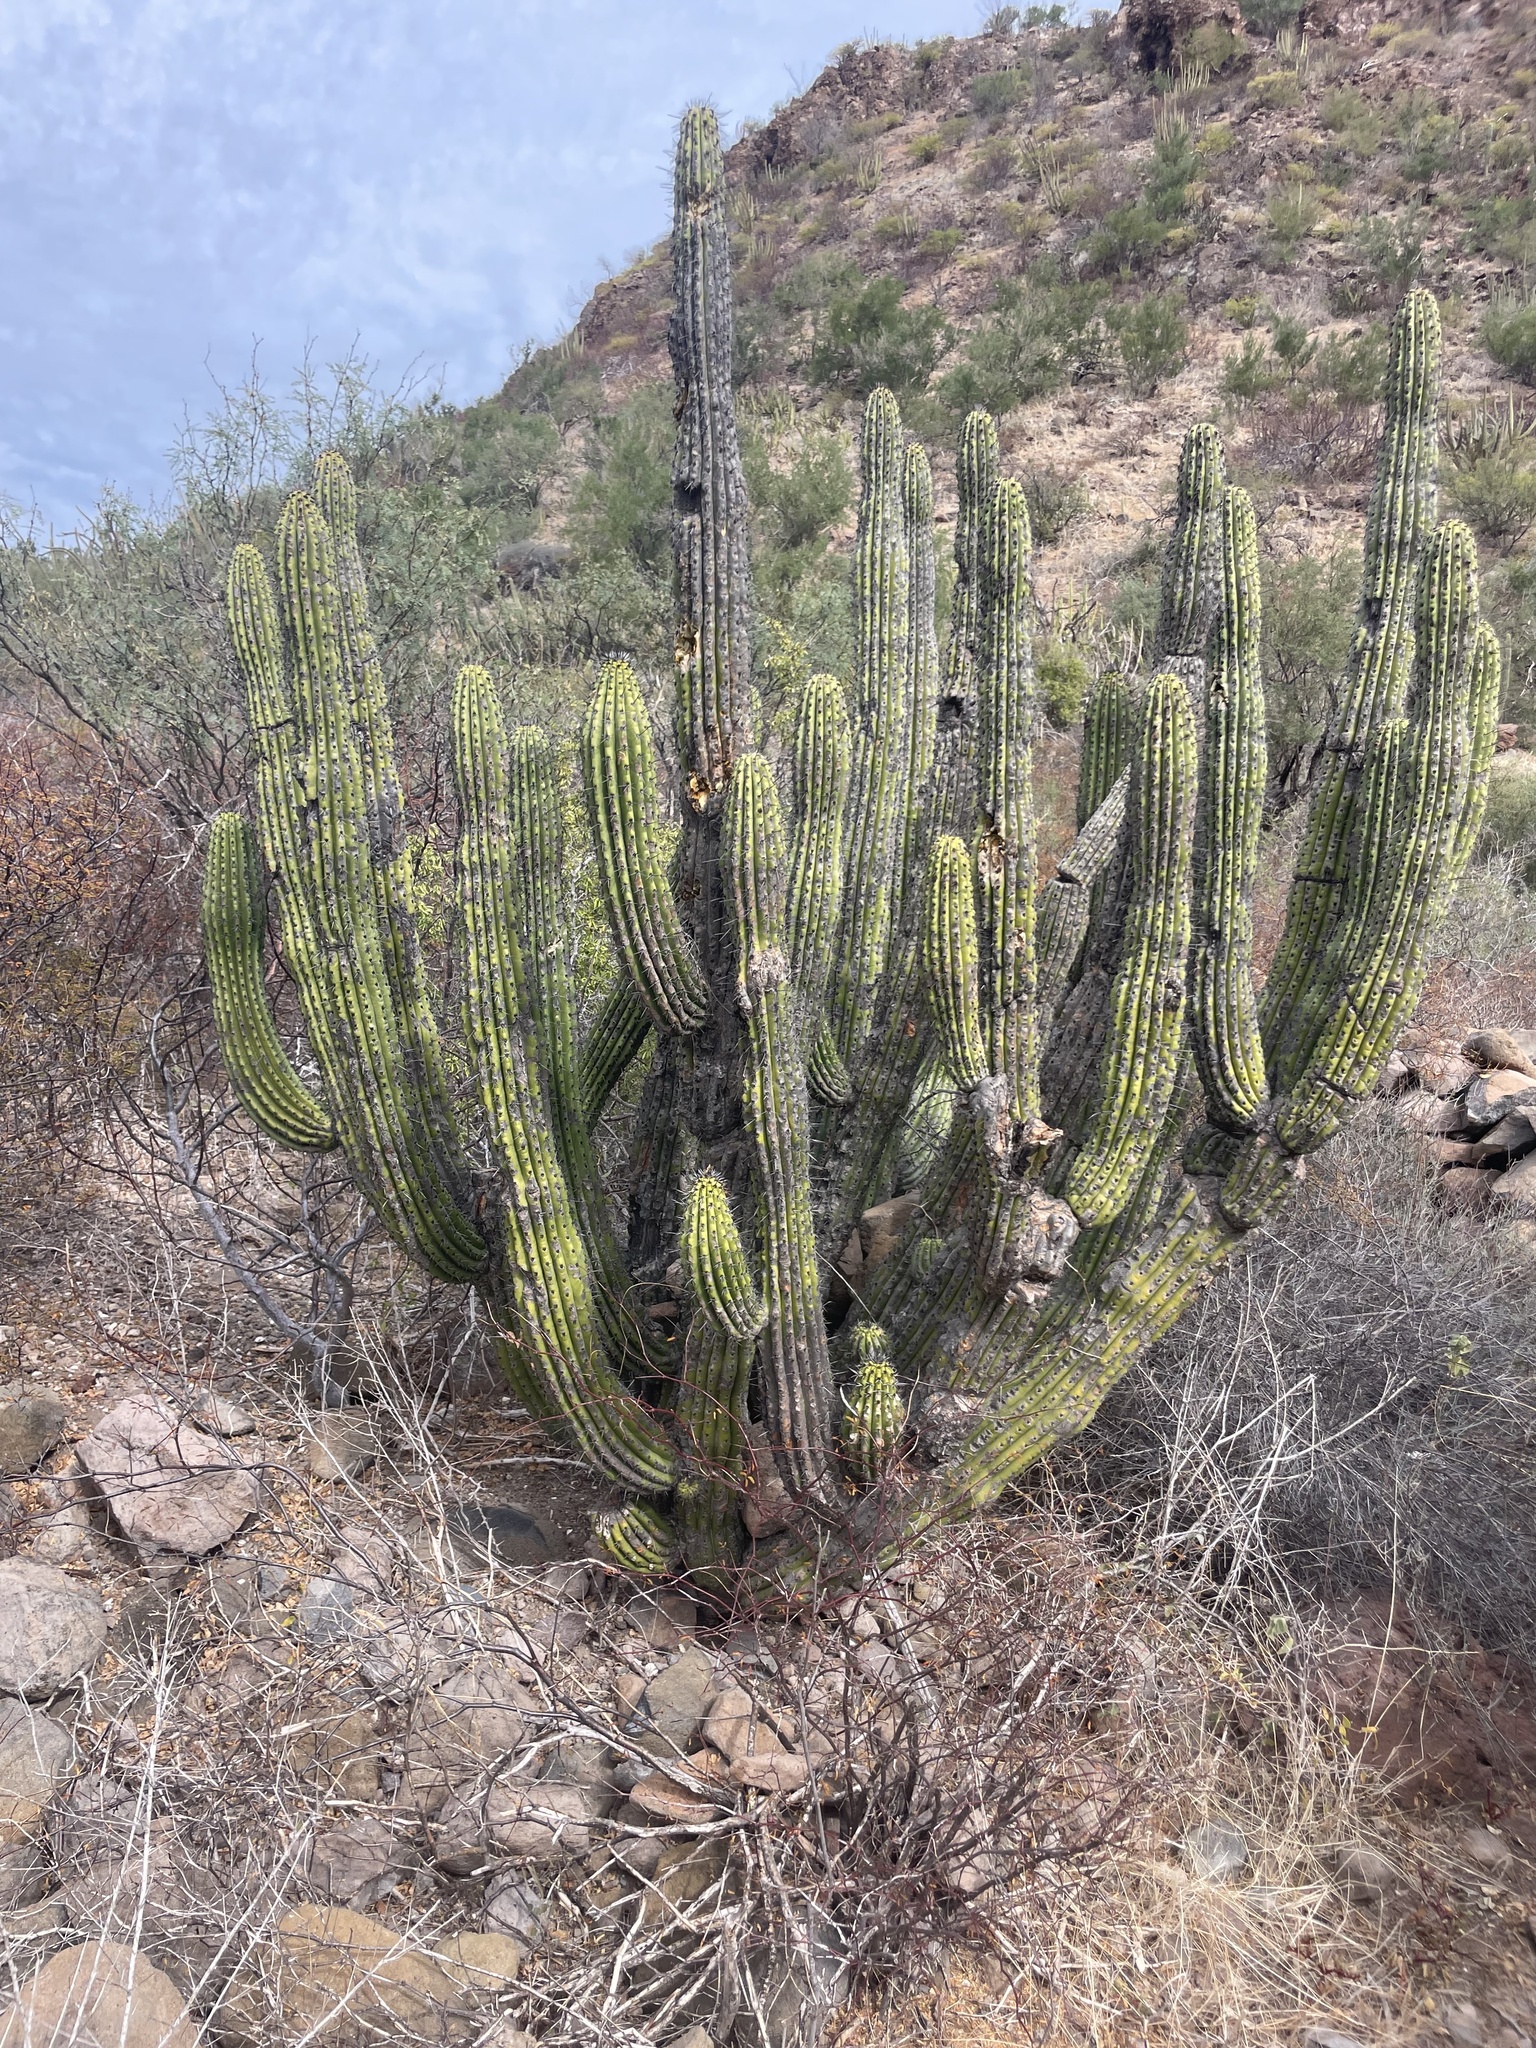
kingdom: Plantae
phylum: Tracheophyta
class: Magnoliopsida
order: Caryophyllales
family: Cactaceae
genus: Stenocereus
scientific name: Stenocereus thurberi
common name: Organ pipe cactus
